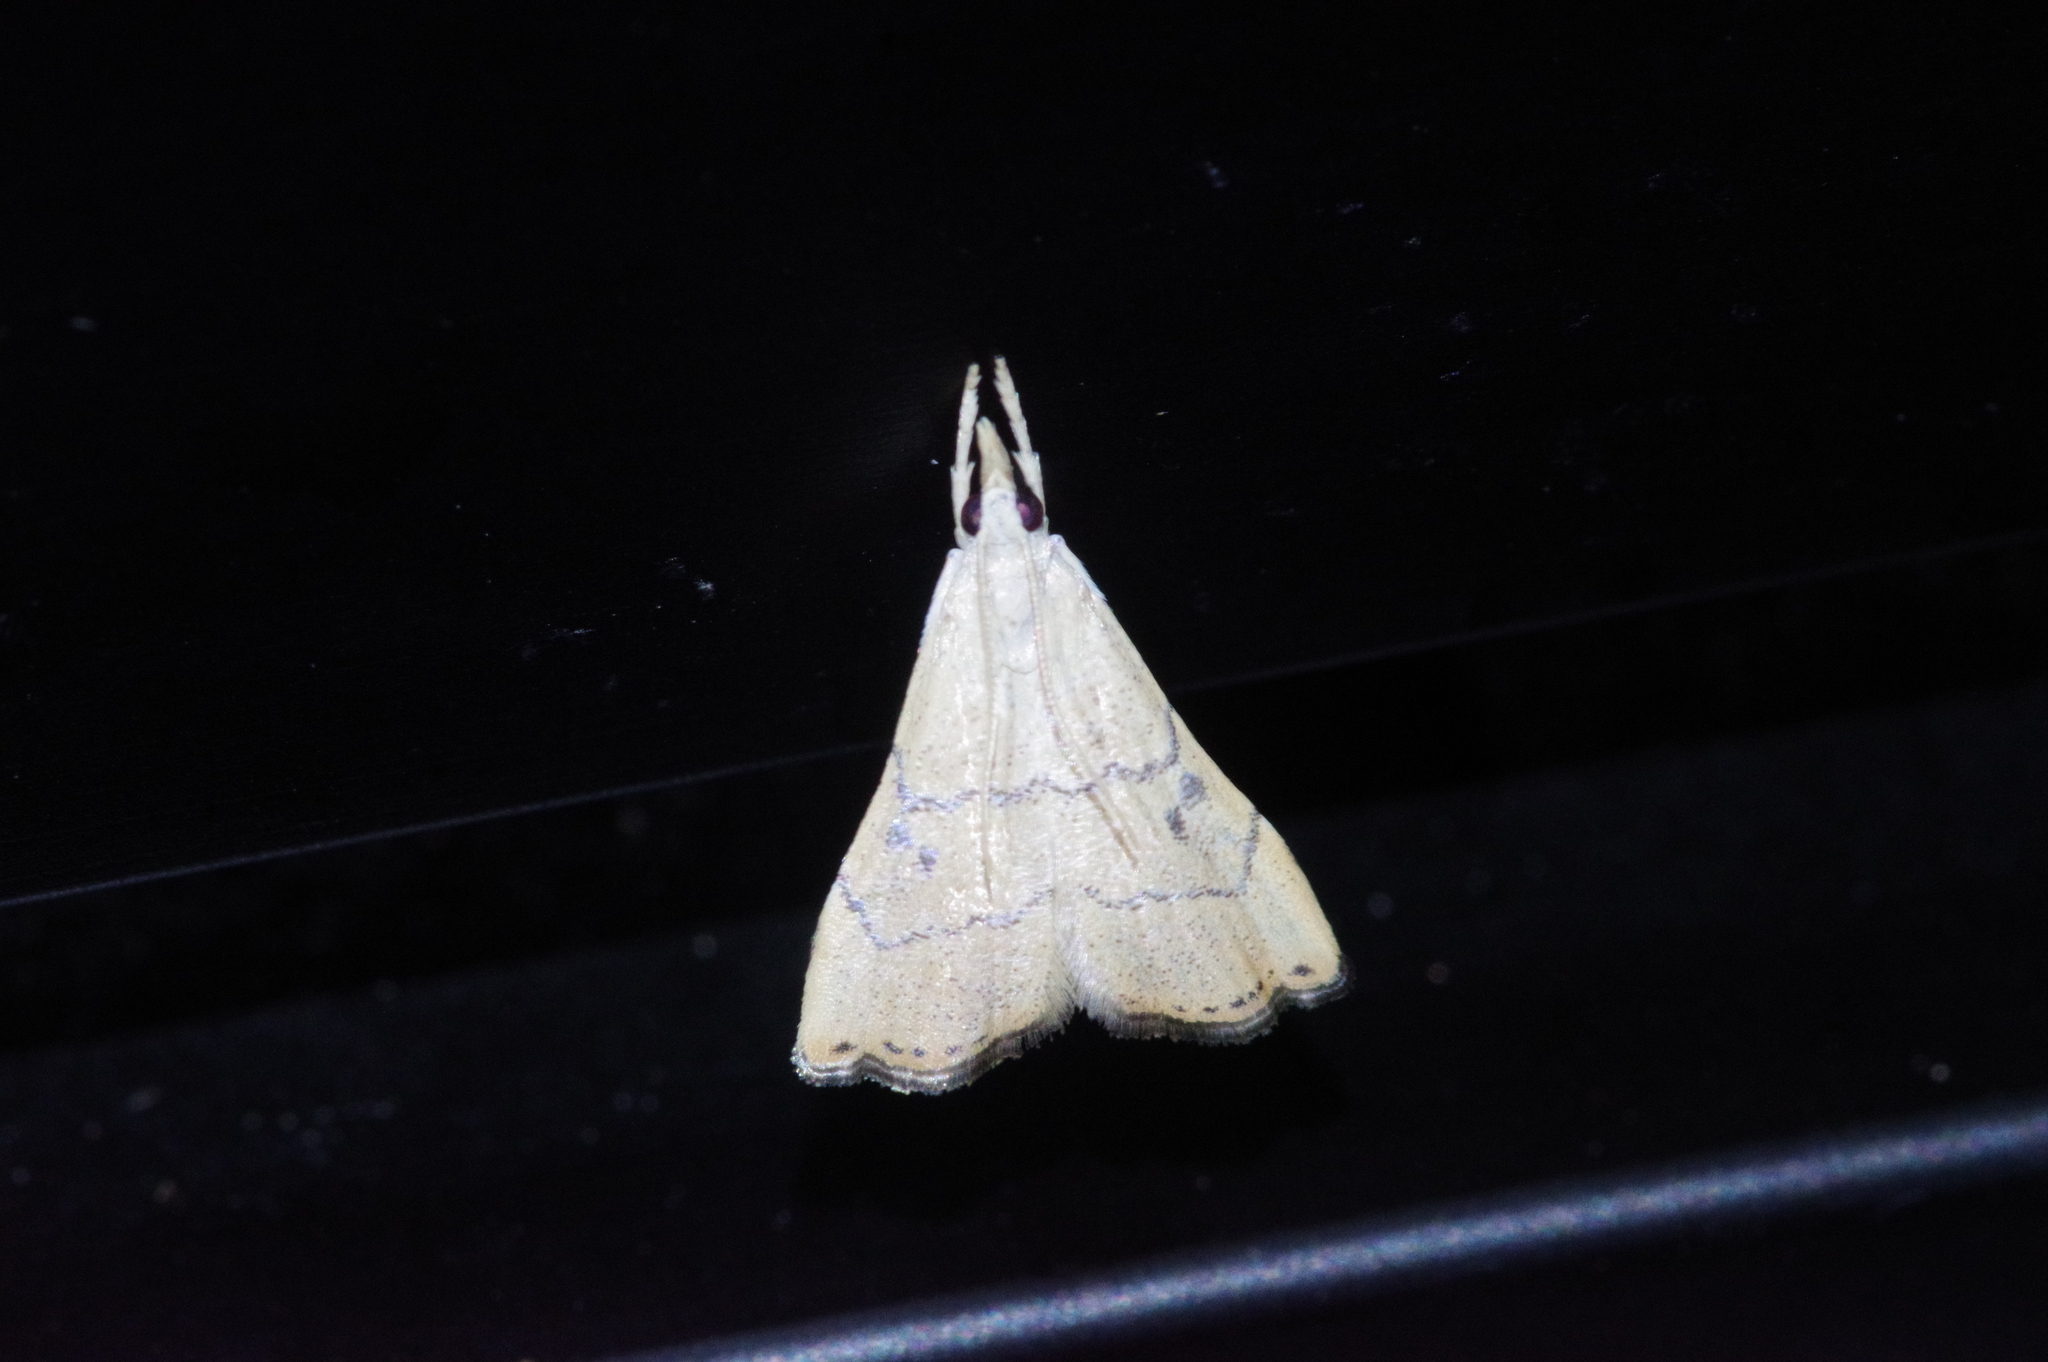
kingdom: Animalia
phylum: Arthropoda
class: Insecta
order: Lepidoptera
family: Crambidae
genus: Ptychopseustis
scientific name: Ptychopseustis
